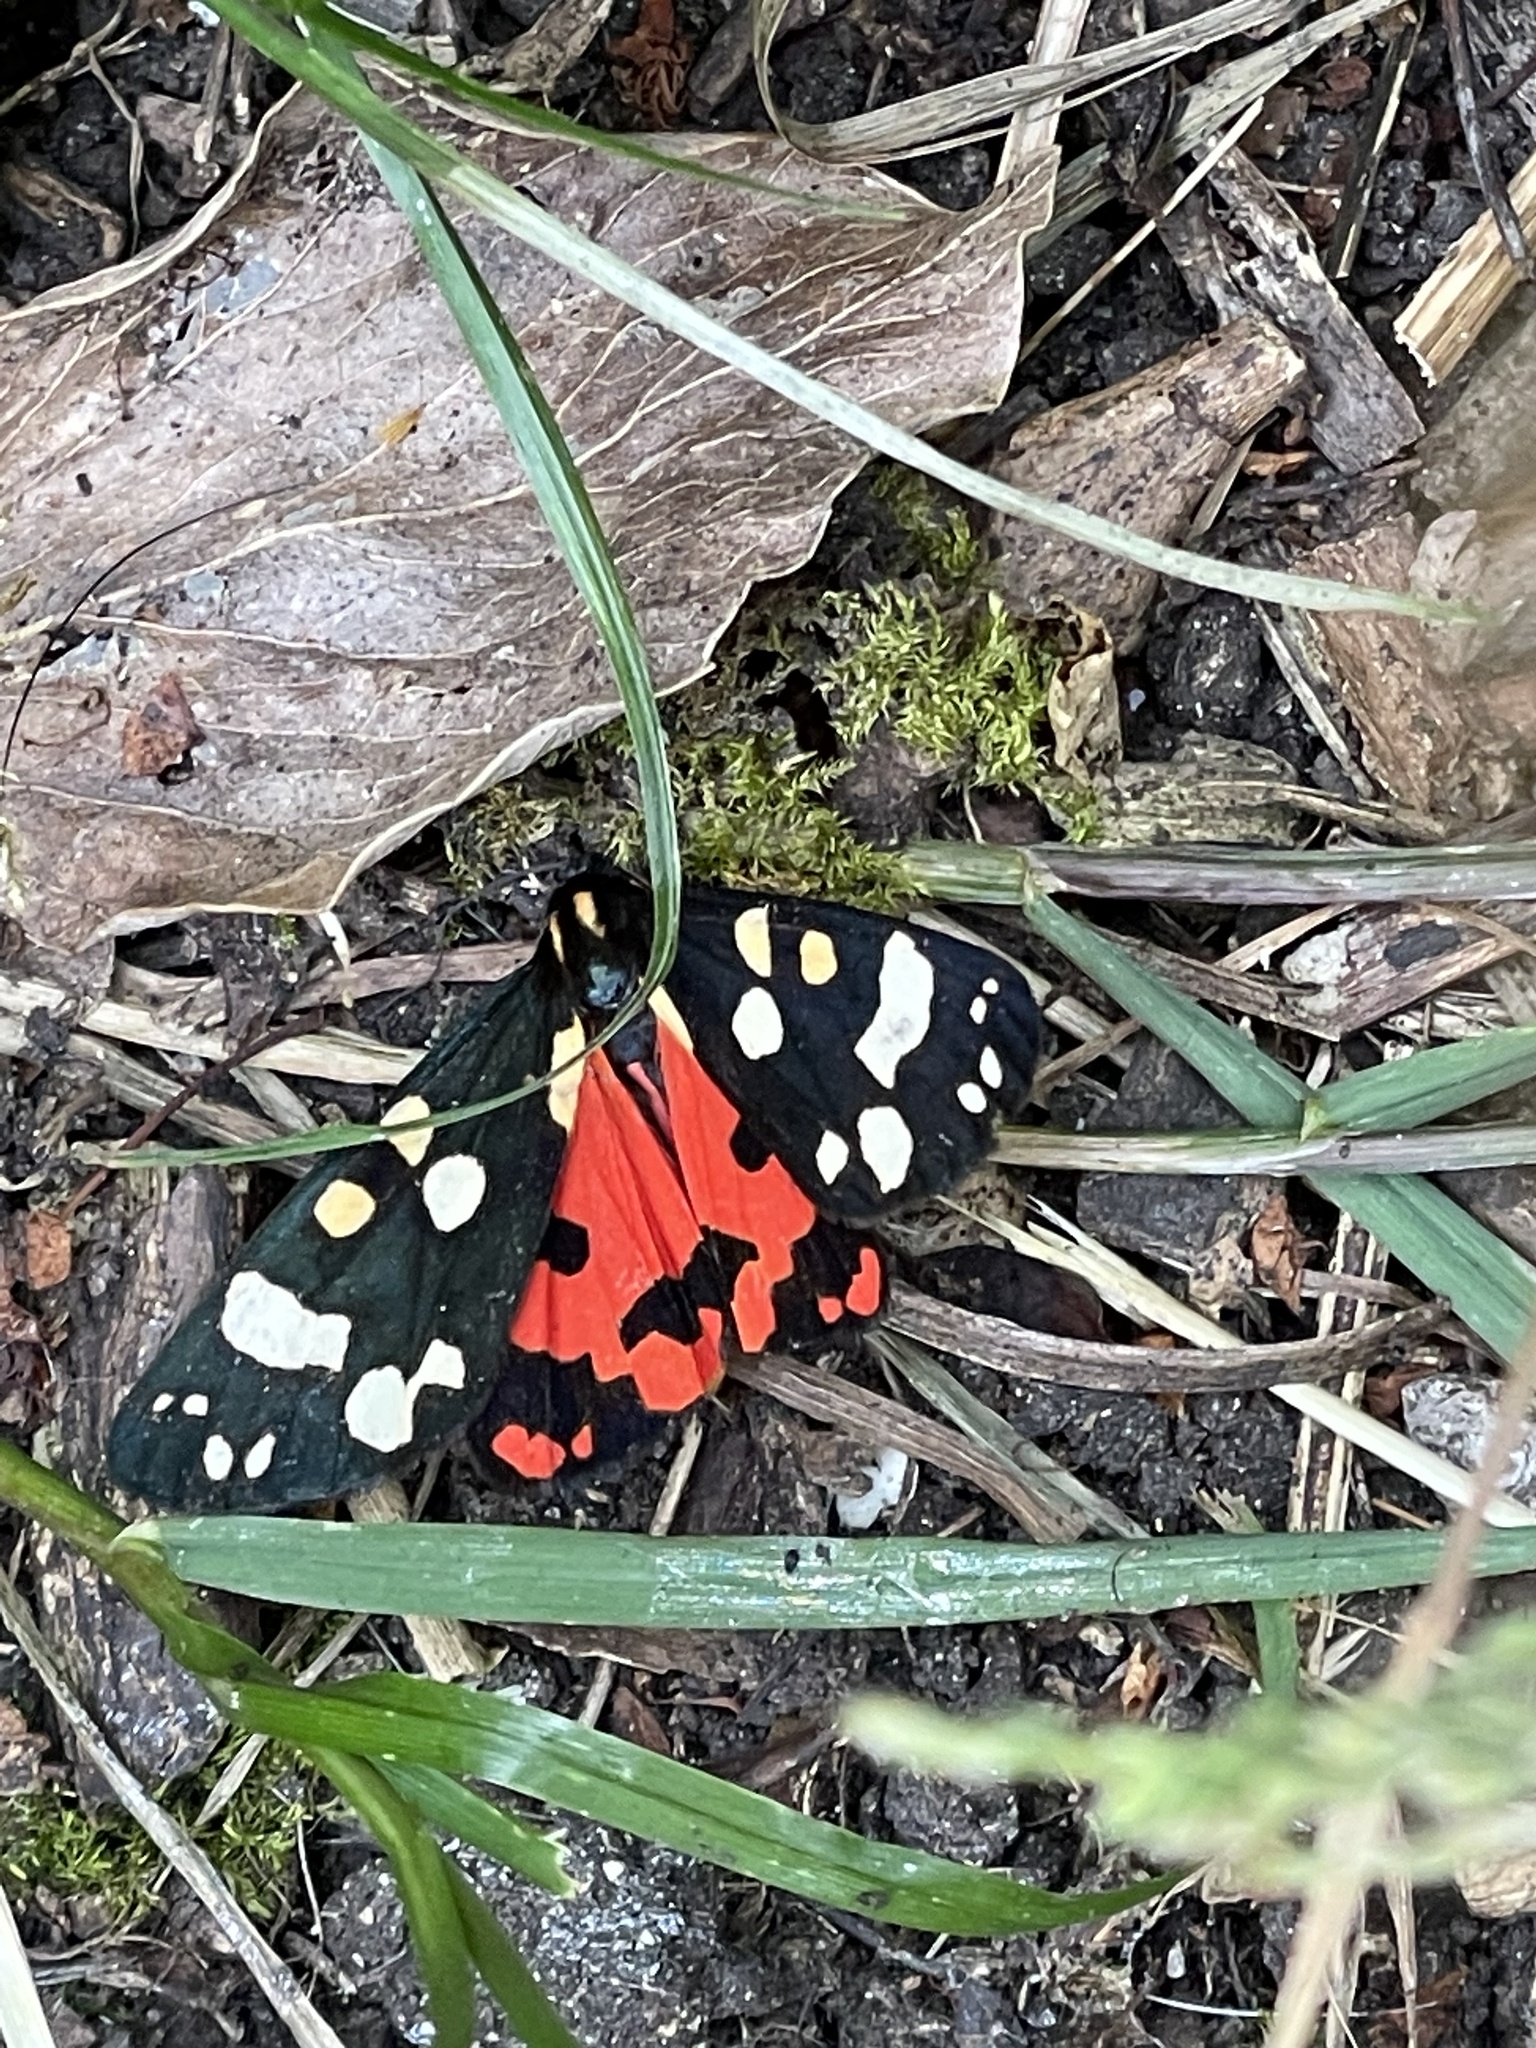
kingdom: Animalia
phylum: Arthropoda
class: Insecta
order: Lepidoptera
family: Erebidae
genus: Callimorpha
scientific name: Callimorpha dominula
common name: Scarlet tiger
